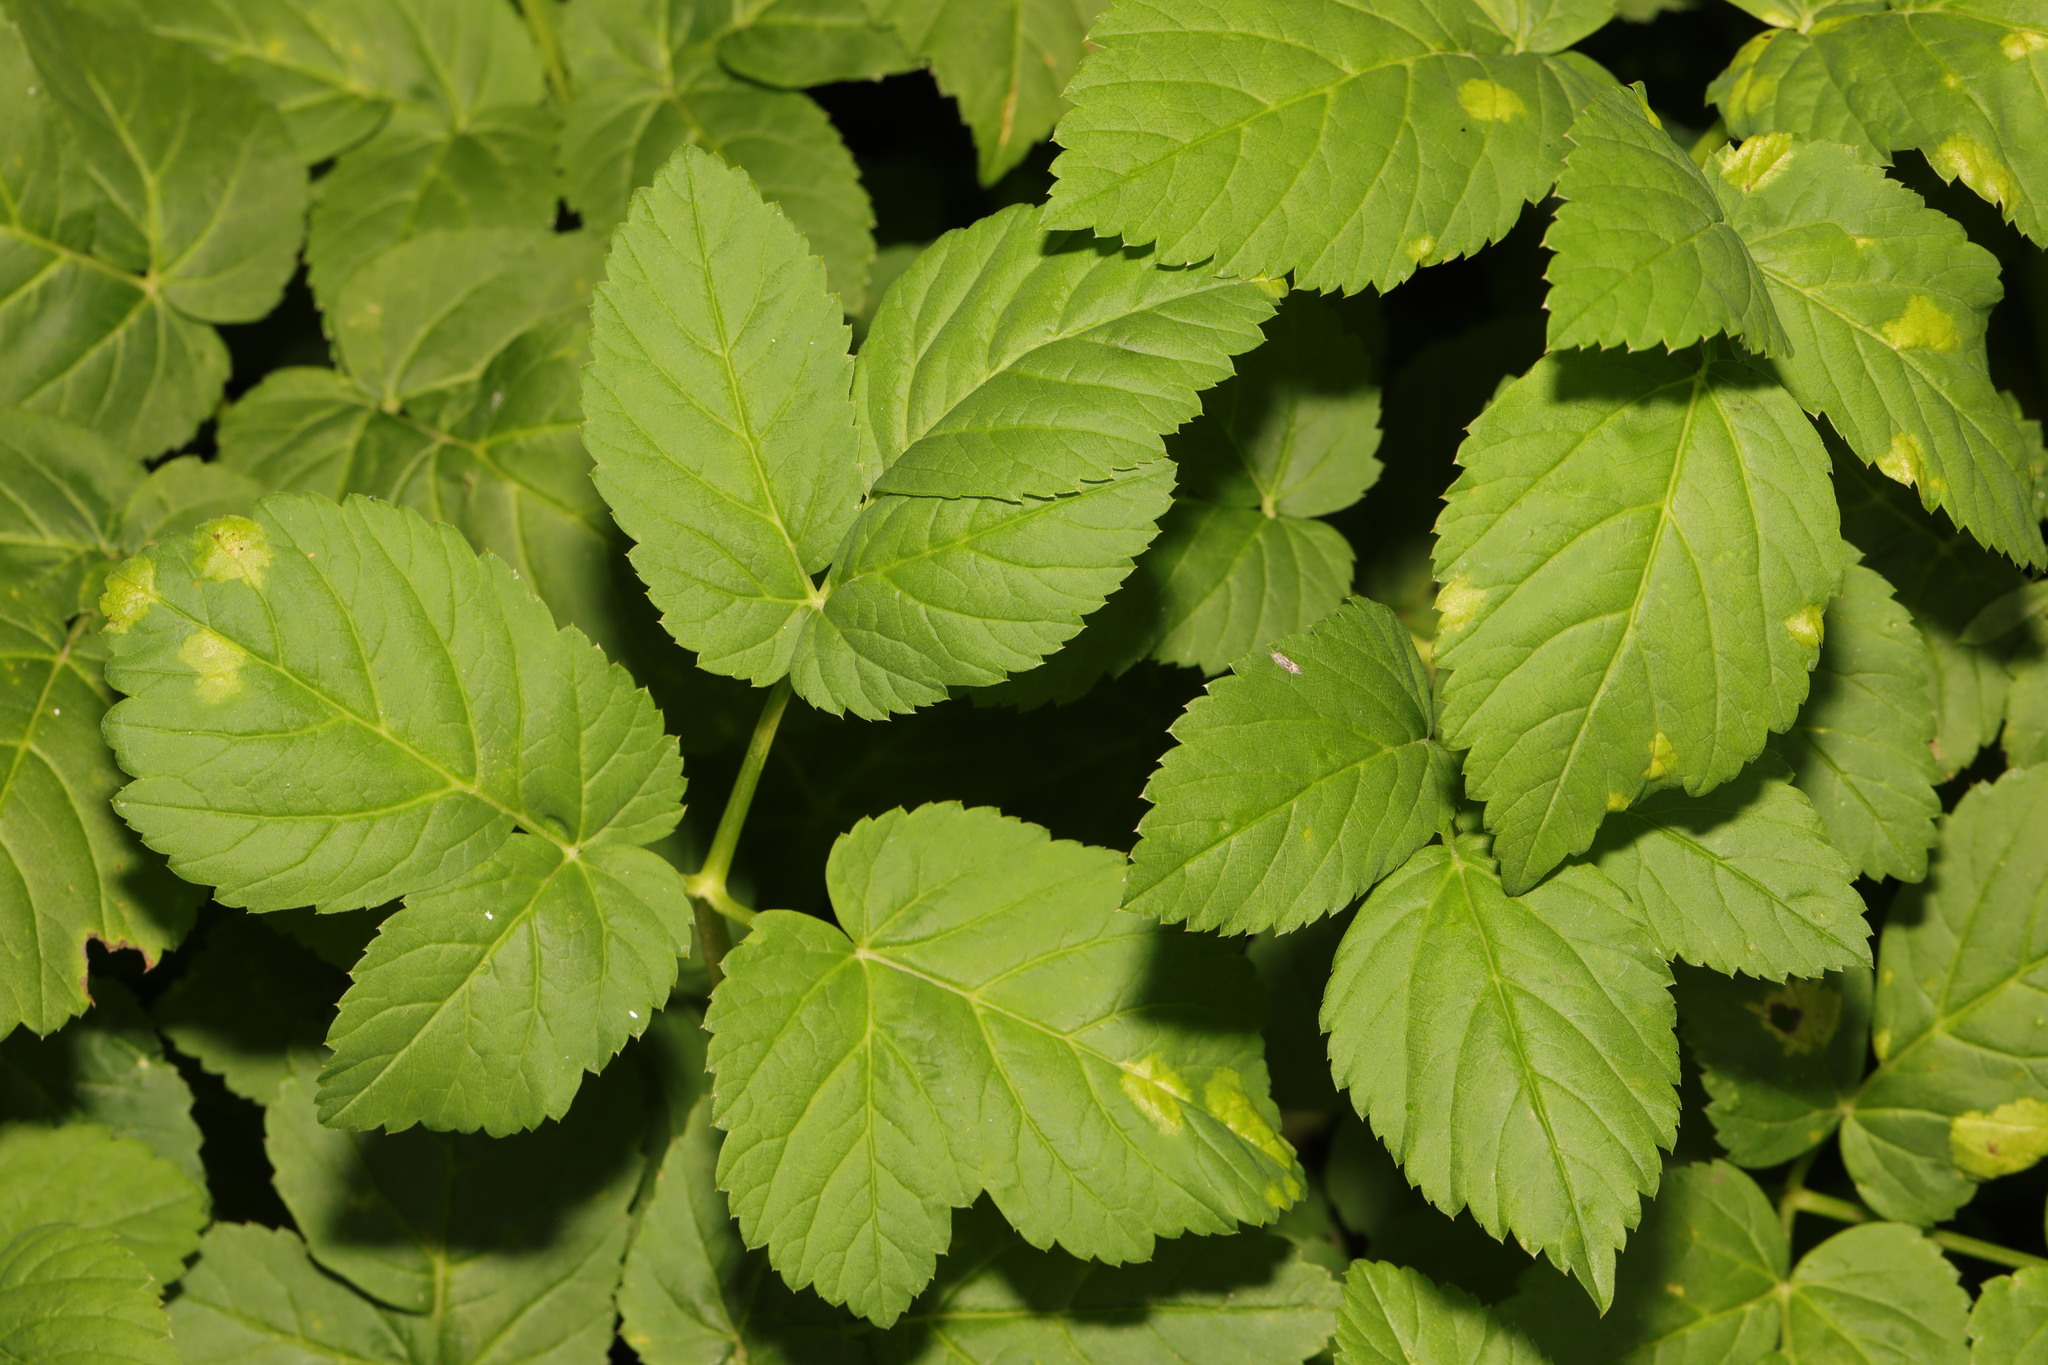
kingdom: Plantae
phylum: Tracheophyta
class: Magnoliopsida
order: Apiales
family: Apiaceae
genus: Aegopodium
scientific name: Aegopodium podagraria
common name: Ground-elder
